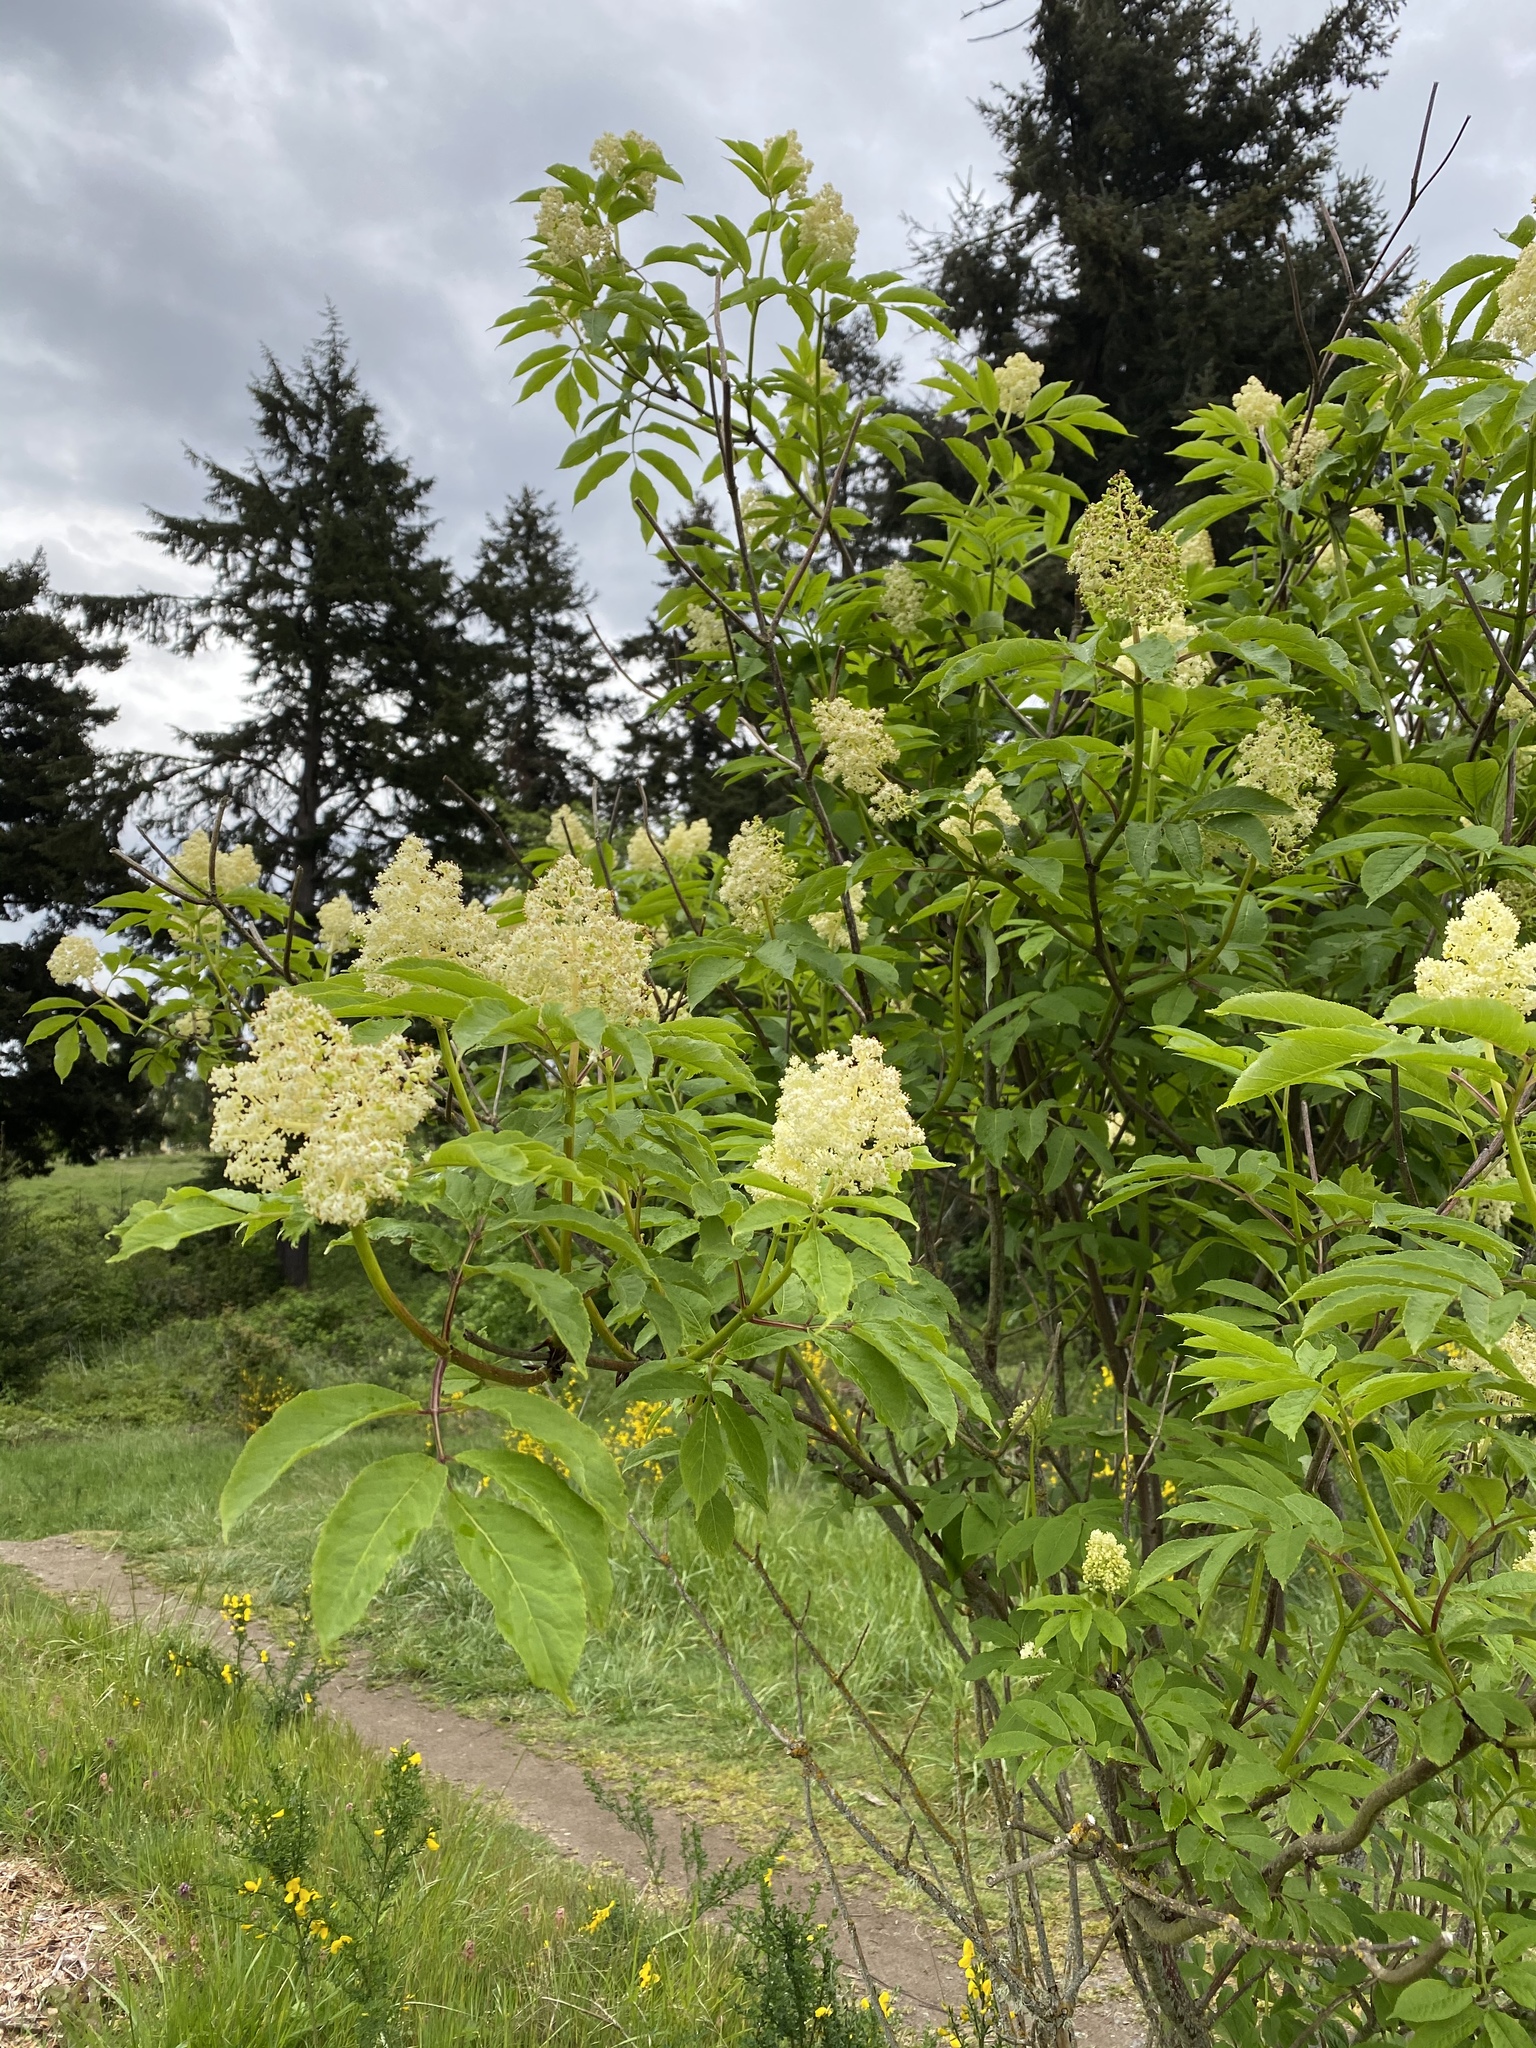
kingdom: Plantae
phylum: Tracheophyta
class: Magnoliopsida
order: Dipsacales
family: Viburnaceae
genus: Sambucus
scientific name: Sambucus racemosa
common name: Red-berried elder
